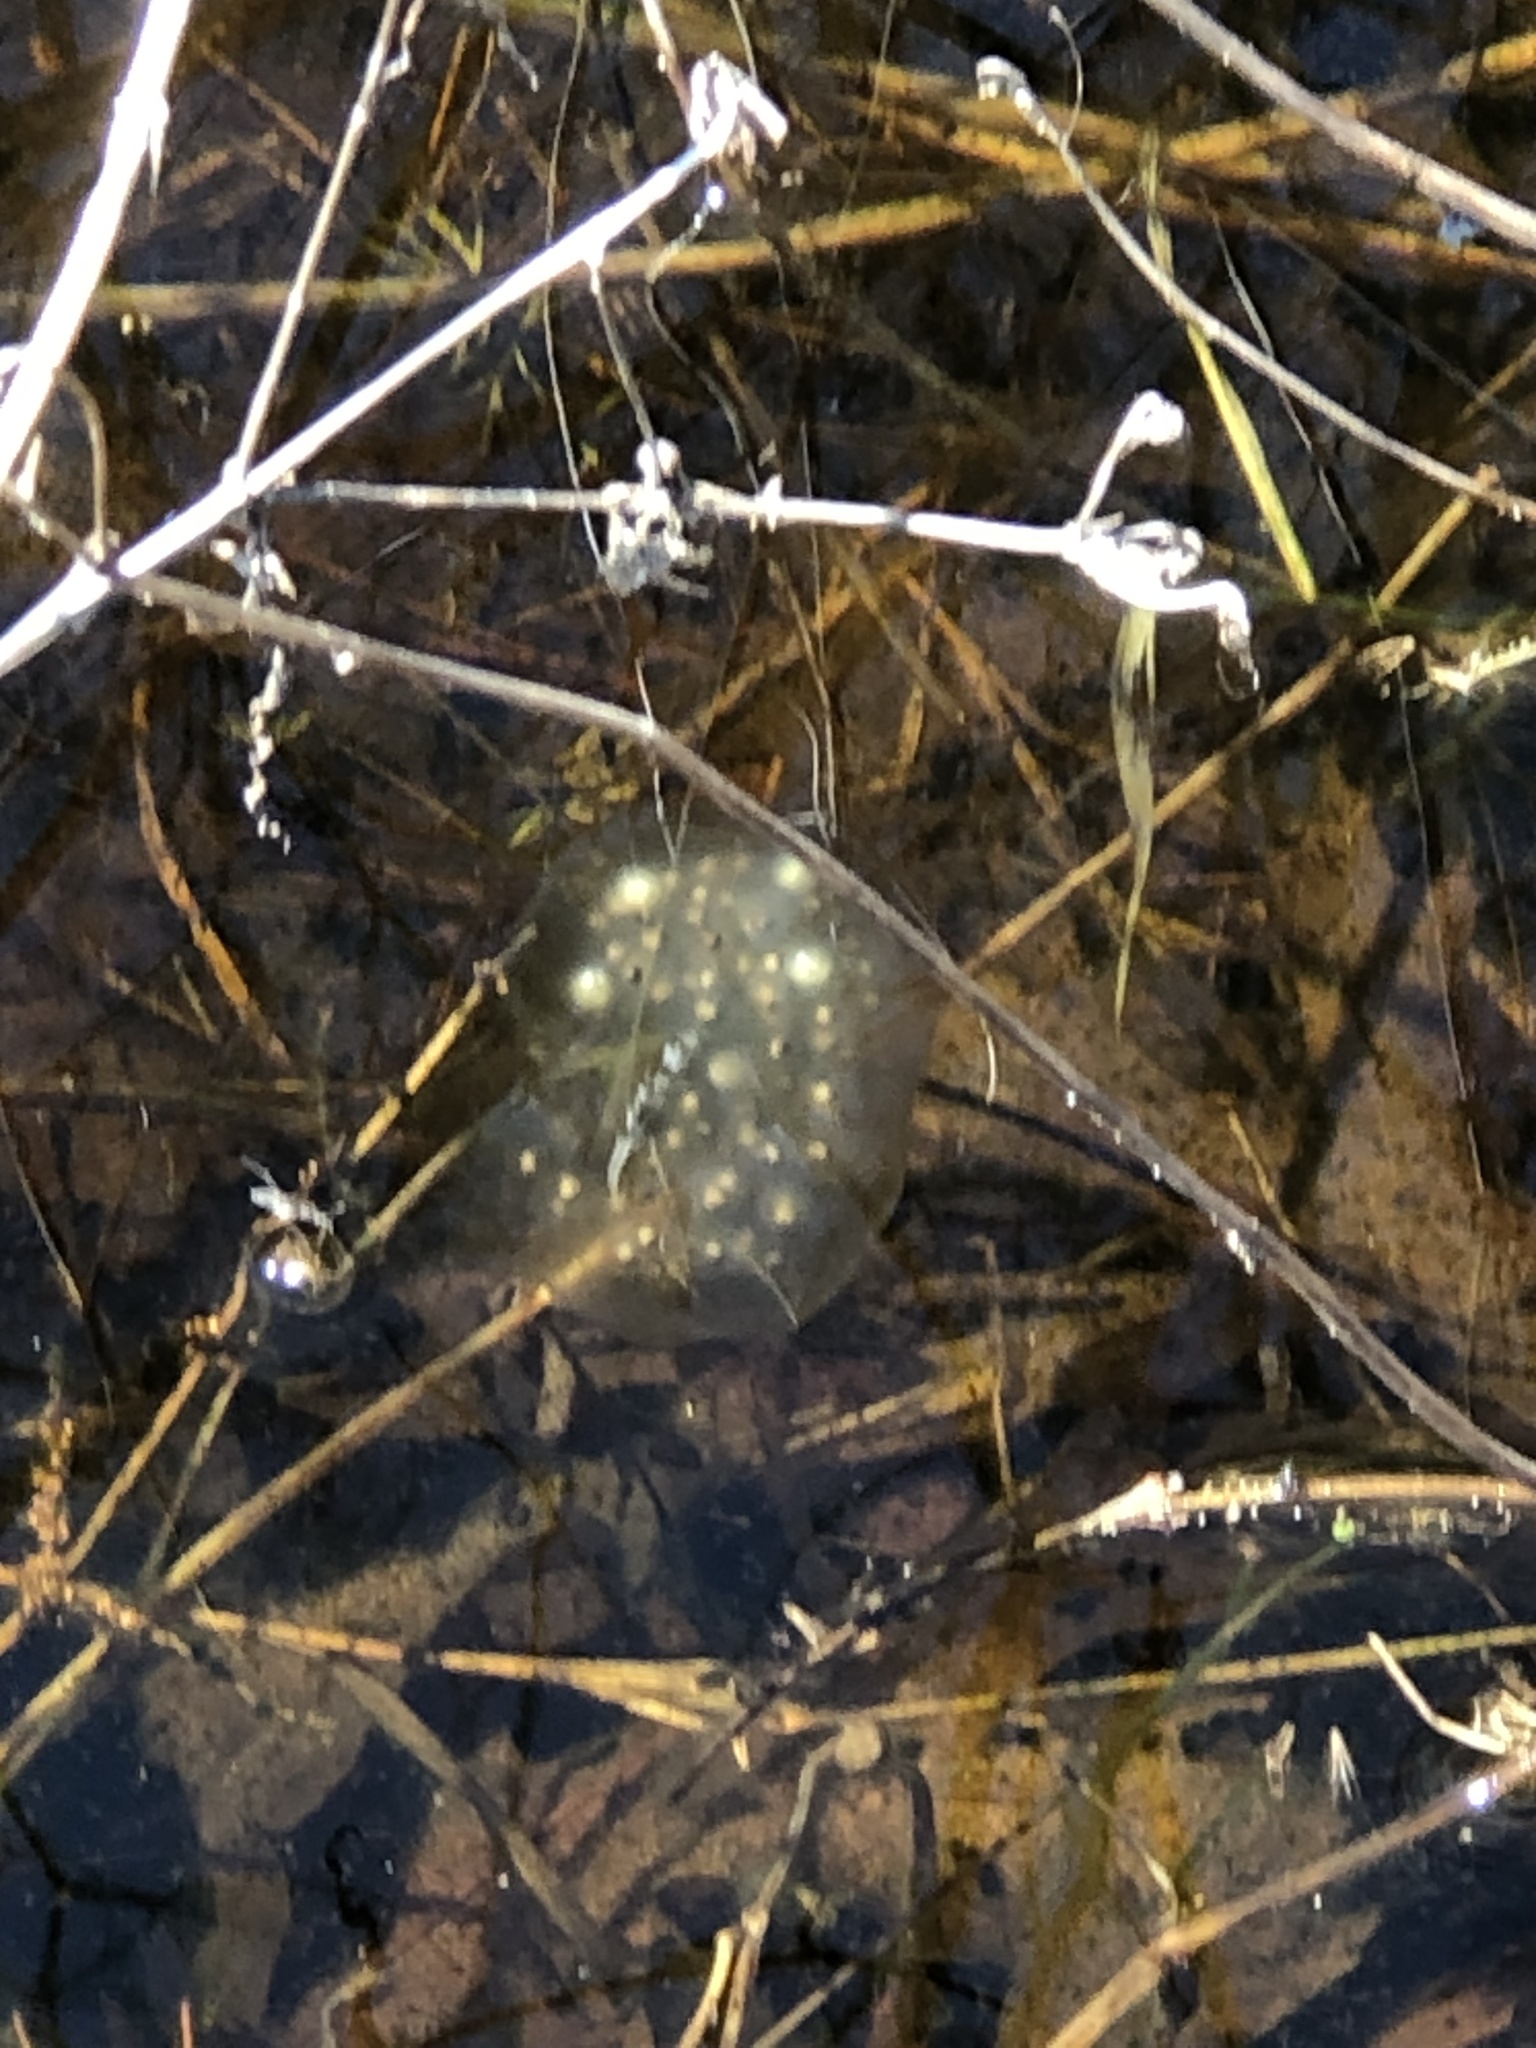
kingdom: Animalia
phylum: Chordata
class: Amphibia
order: Caudata
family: Ambystomatidae
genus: Ambystoma
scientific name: Ambystoma maculatum
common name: Spotted salamander
